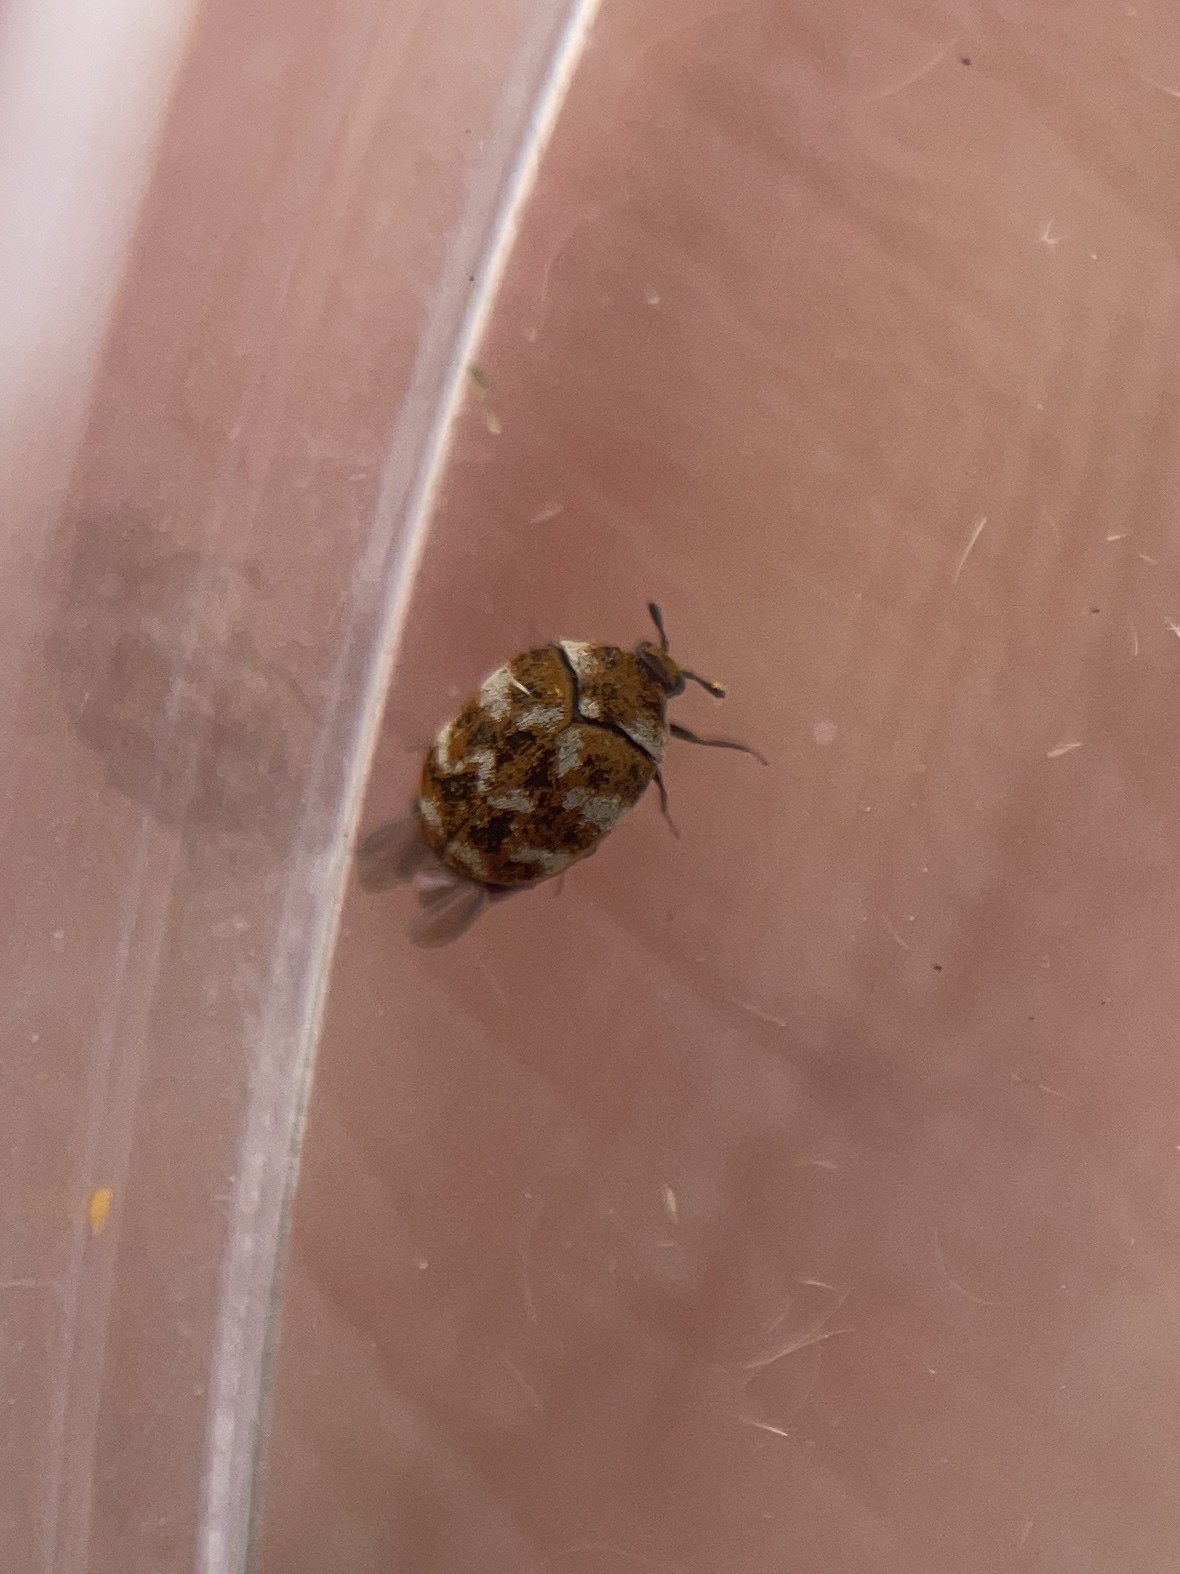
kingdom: Animalia
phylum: Arthropoda
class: Insecta
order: Coleoptera
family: Dermestidae
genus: Anthrenus
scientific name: Anthrenus verbasci
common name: Varied carpet beetle
